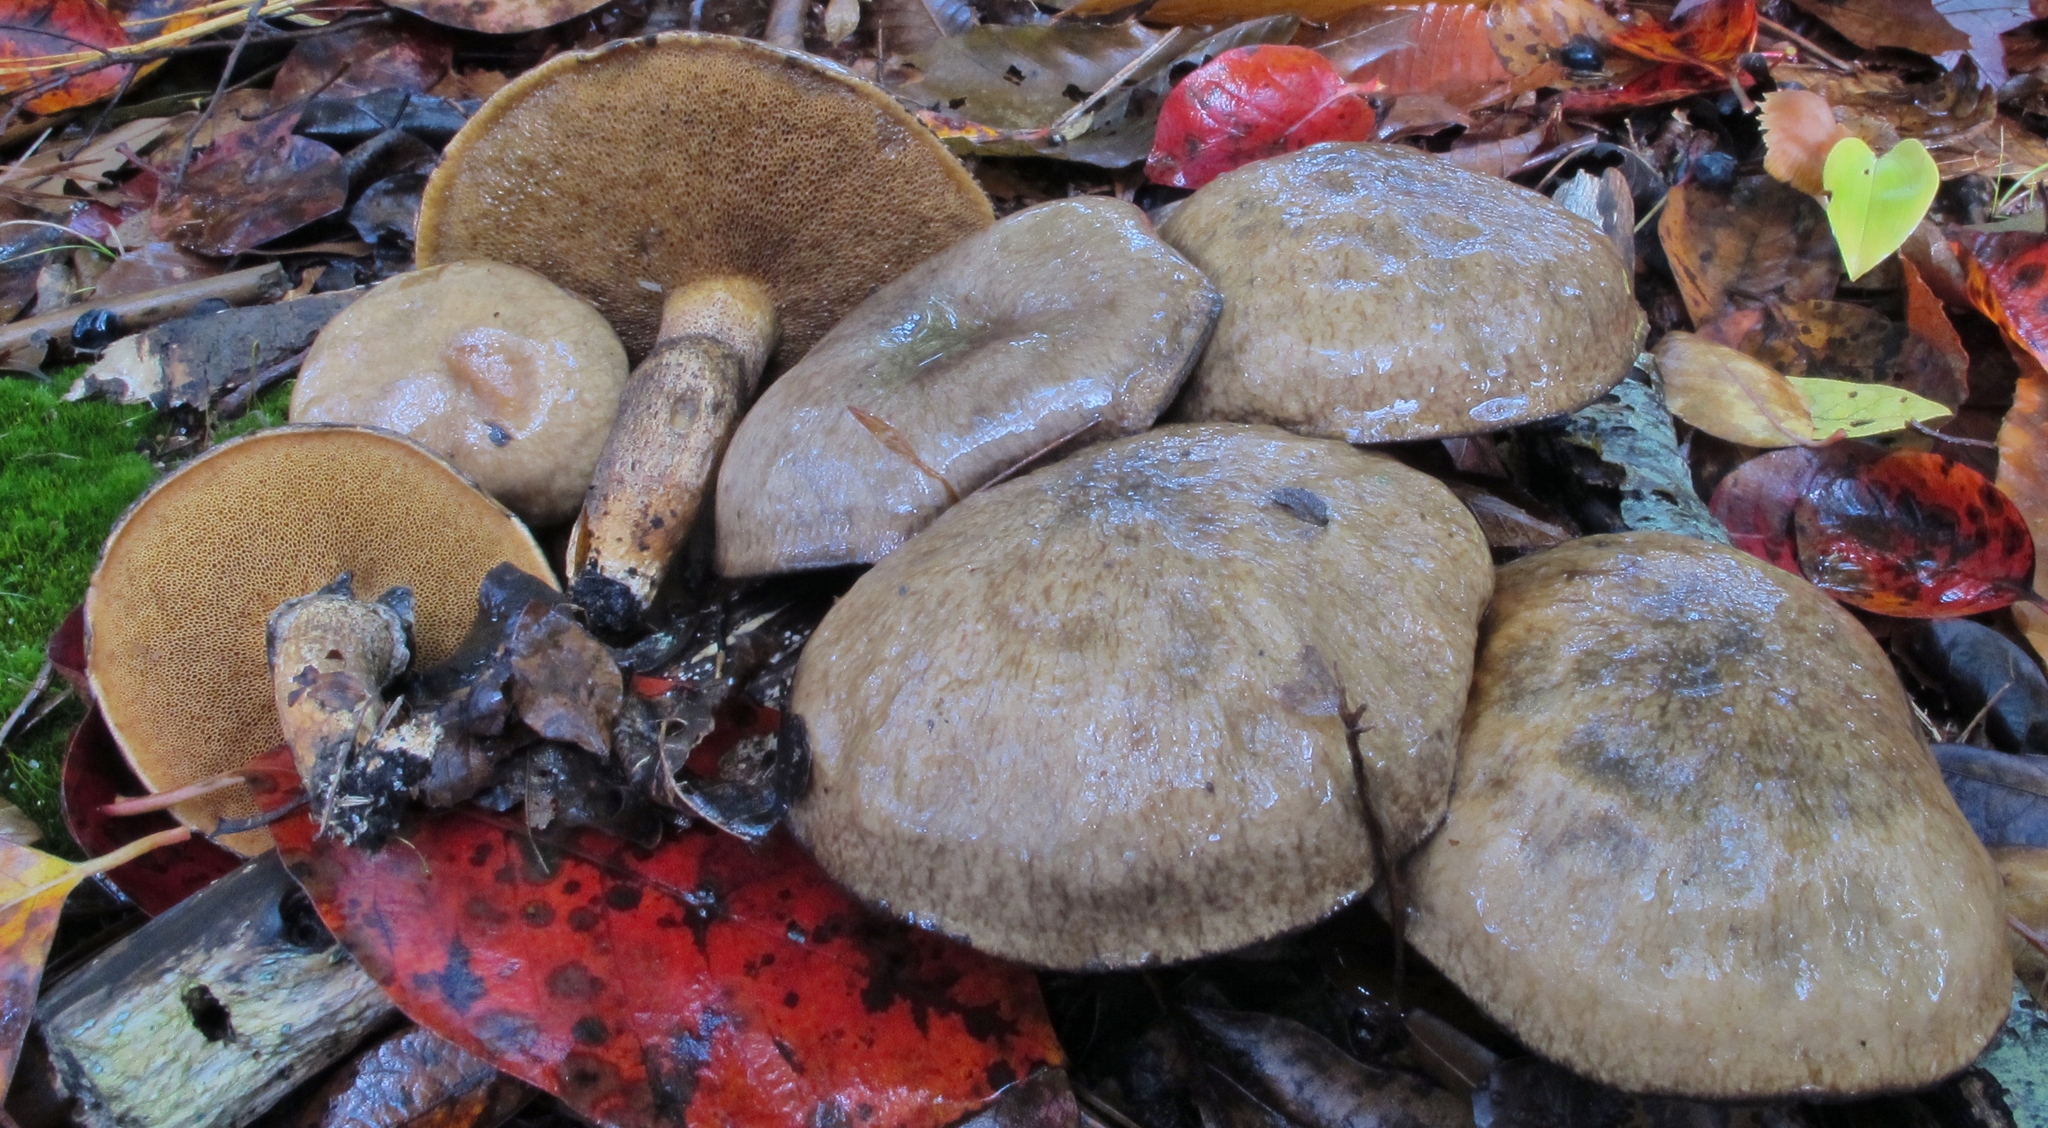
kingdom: Fungi
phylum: Basidiomycota
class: Agaricomycetes
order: Boletales
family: Suillaceae
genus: Suillus
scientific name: Suillus salmonicolor
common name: Slippery jill
